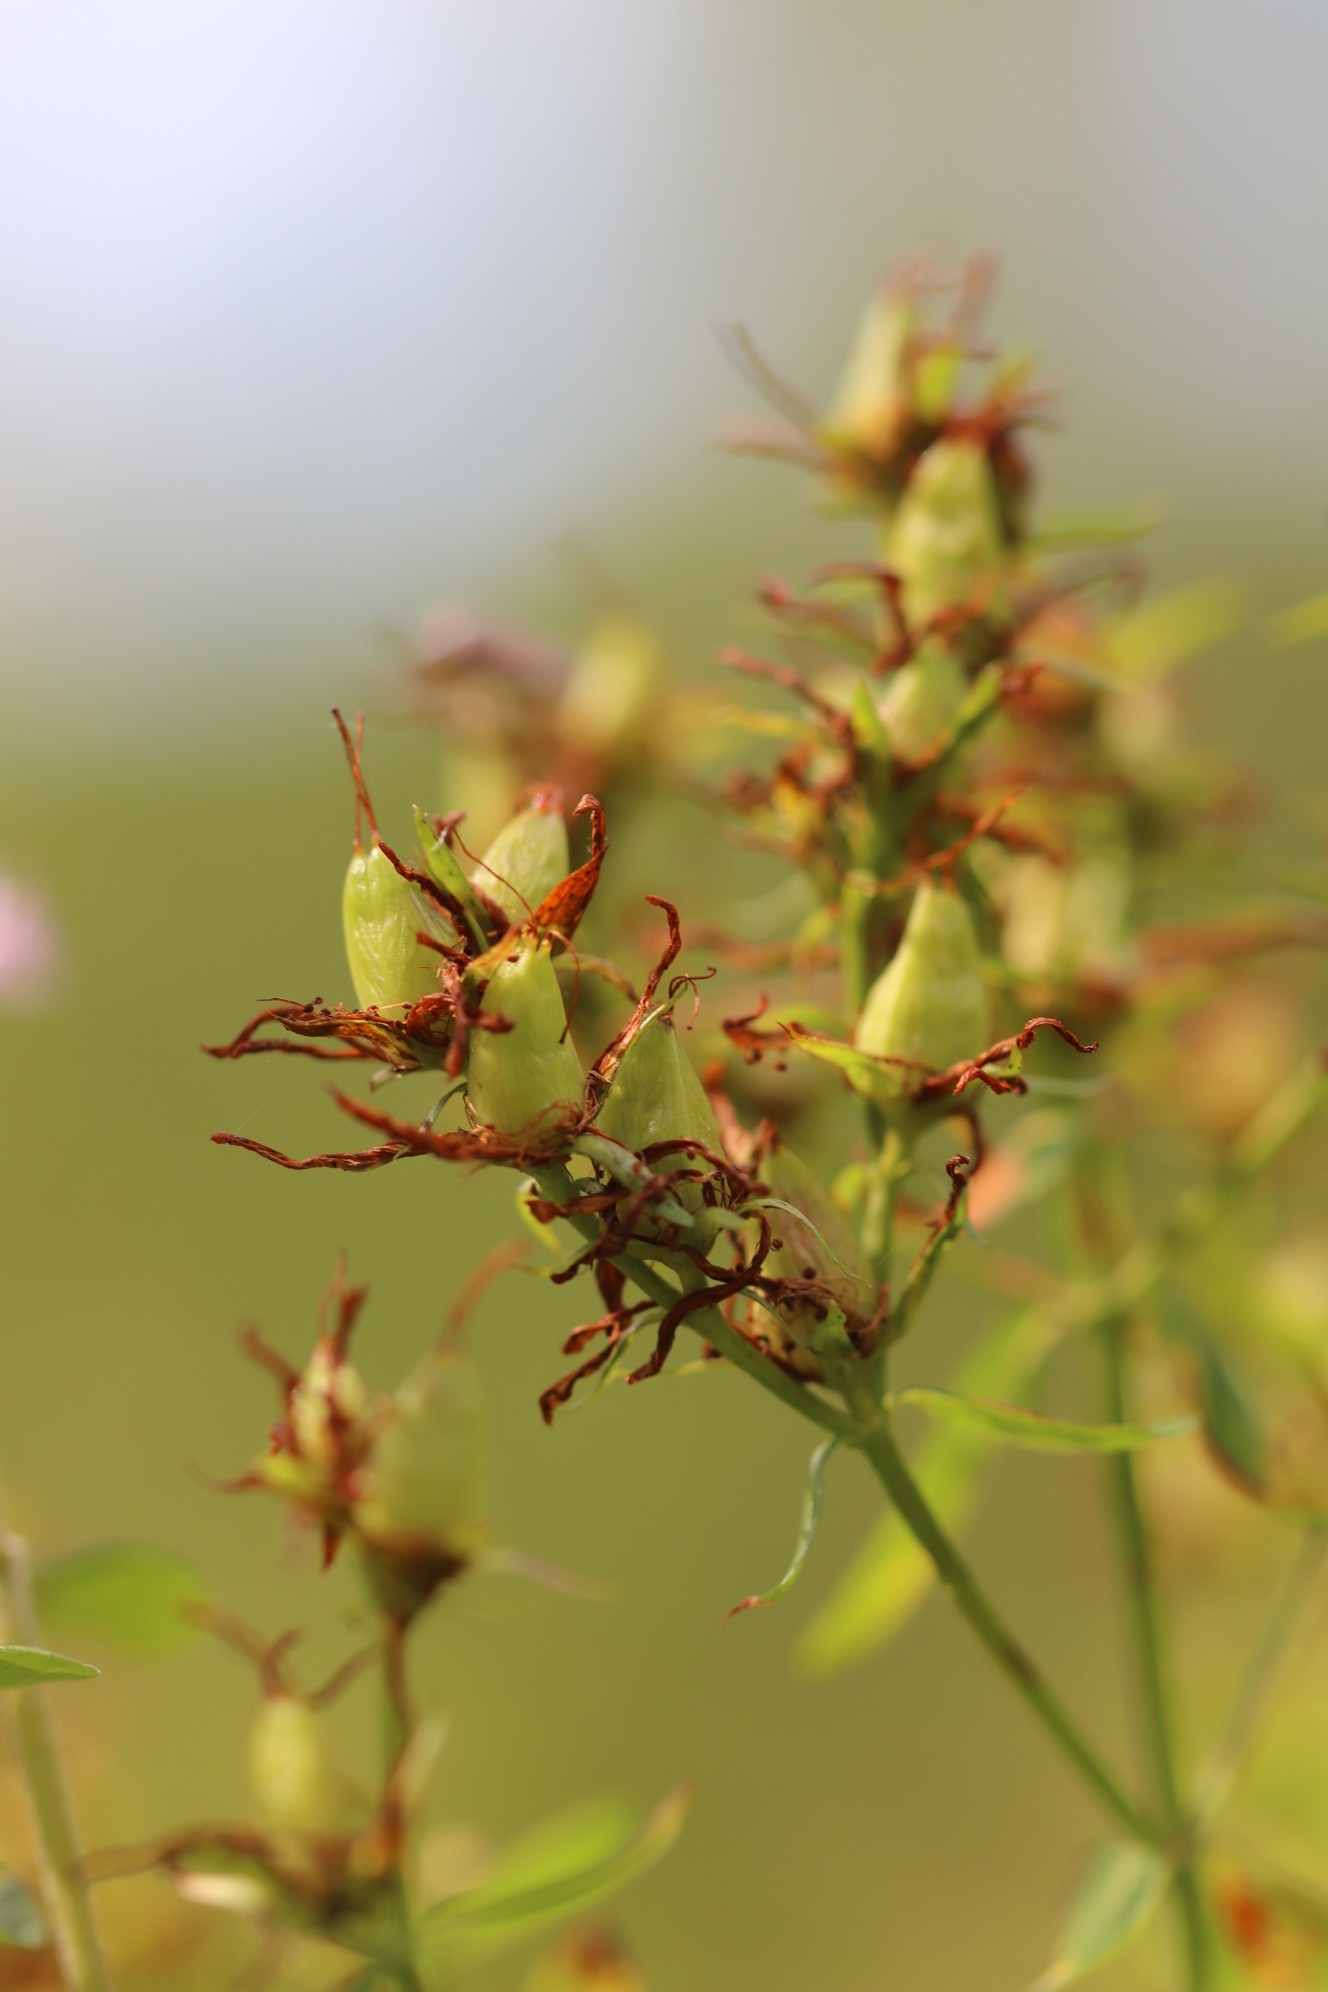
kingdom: Plantae
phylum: Tracheophyta
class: Magnoliopsida
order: Malpighiales
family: Hypericaceae
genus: Hypericum
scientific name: Hypericum perforatum
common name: Common st. johnswort
